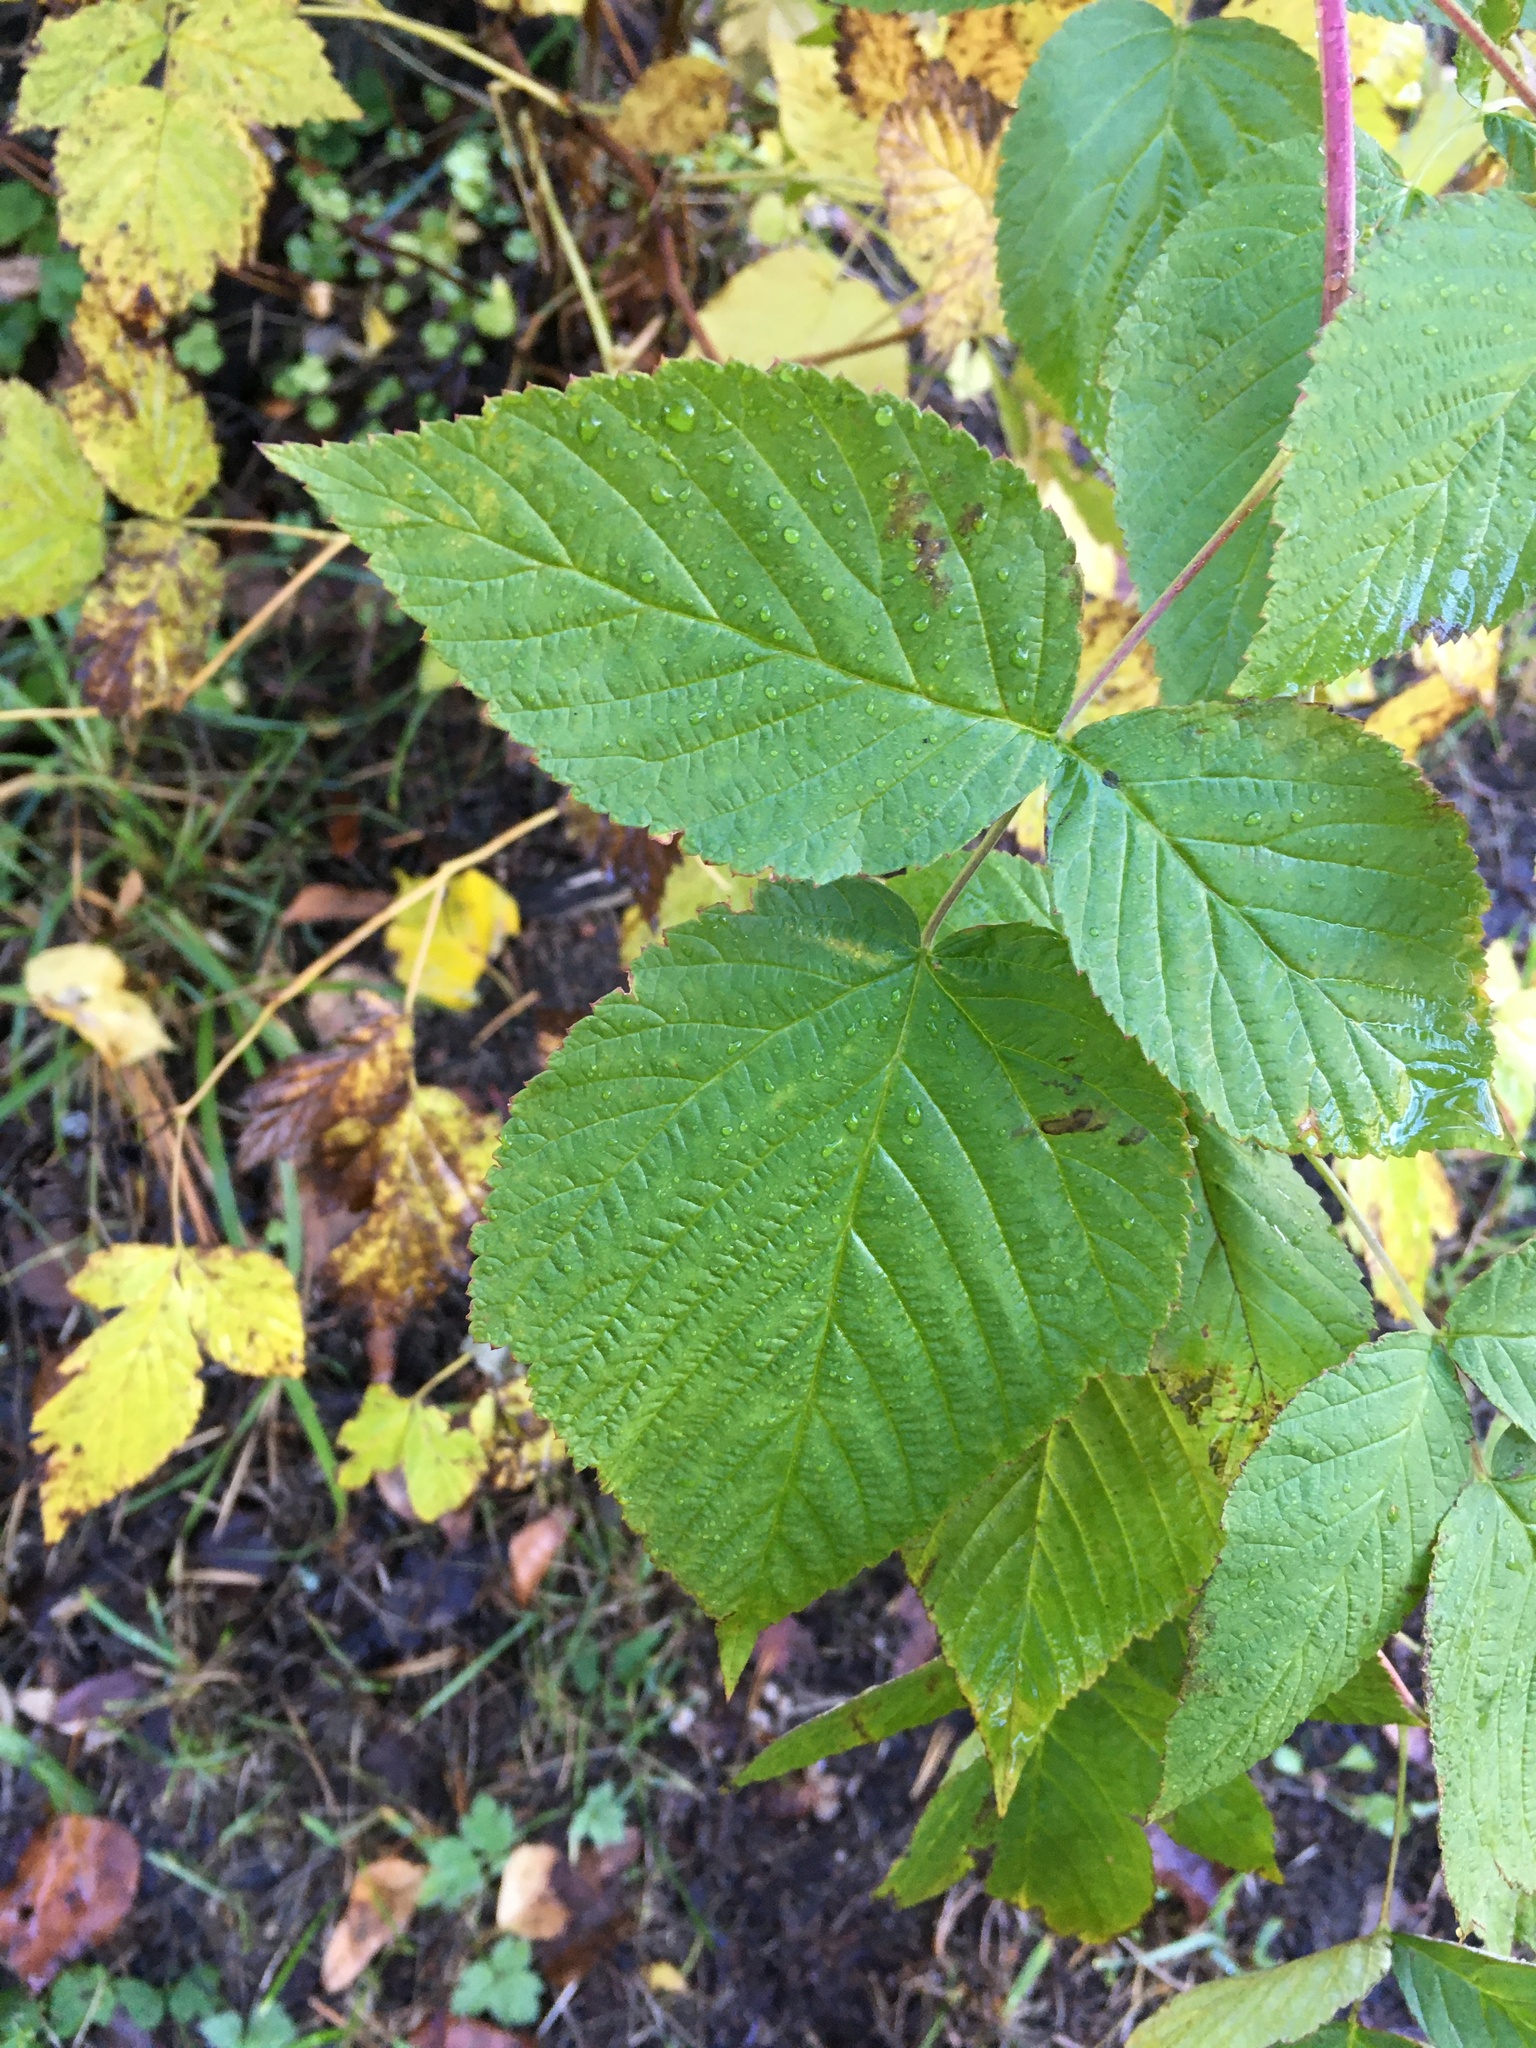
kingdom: Plantae
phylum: Tracheophyta
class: Magnoliopsida
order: Rosales
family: Rosaceae
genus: Rubus
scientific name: Rubus idaeus
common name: Raspberry
